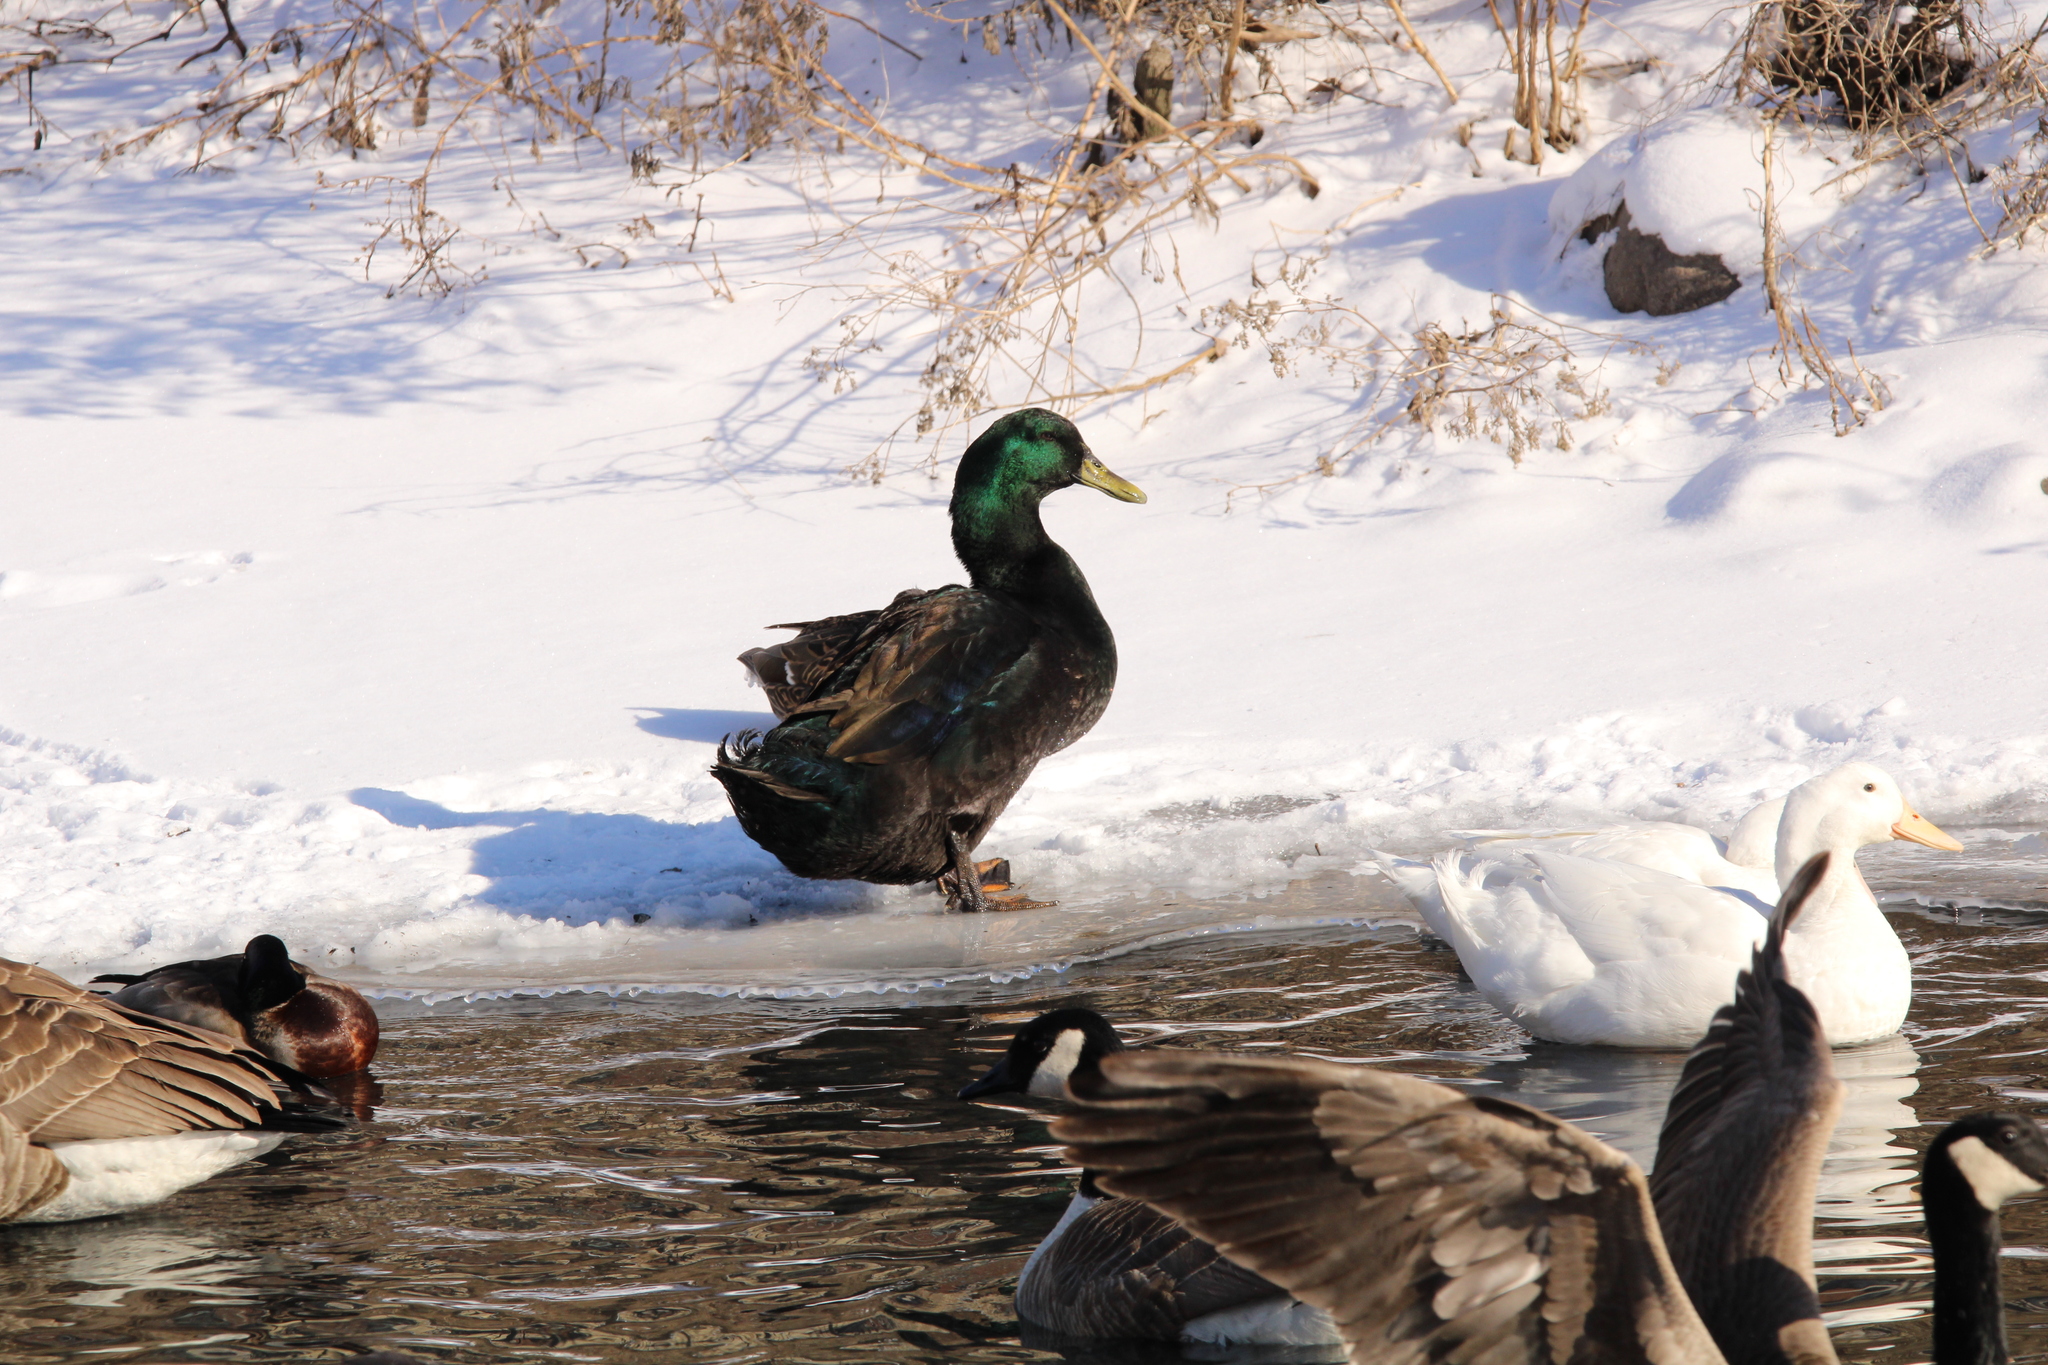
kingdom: Animalia
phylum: Chordata
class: Aves
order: Anseriformes
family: Anatidae
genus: Anas
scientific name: Anas platyrhynchos
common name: Mallard
